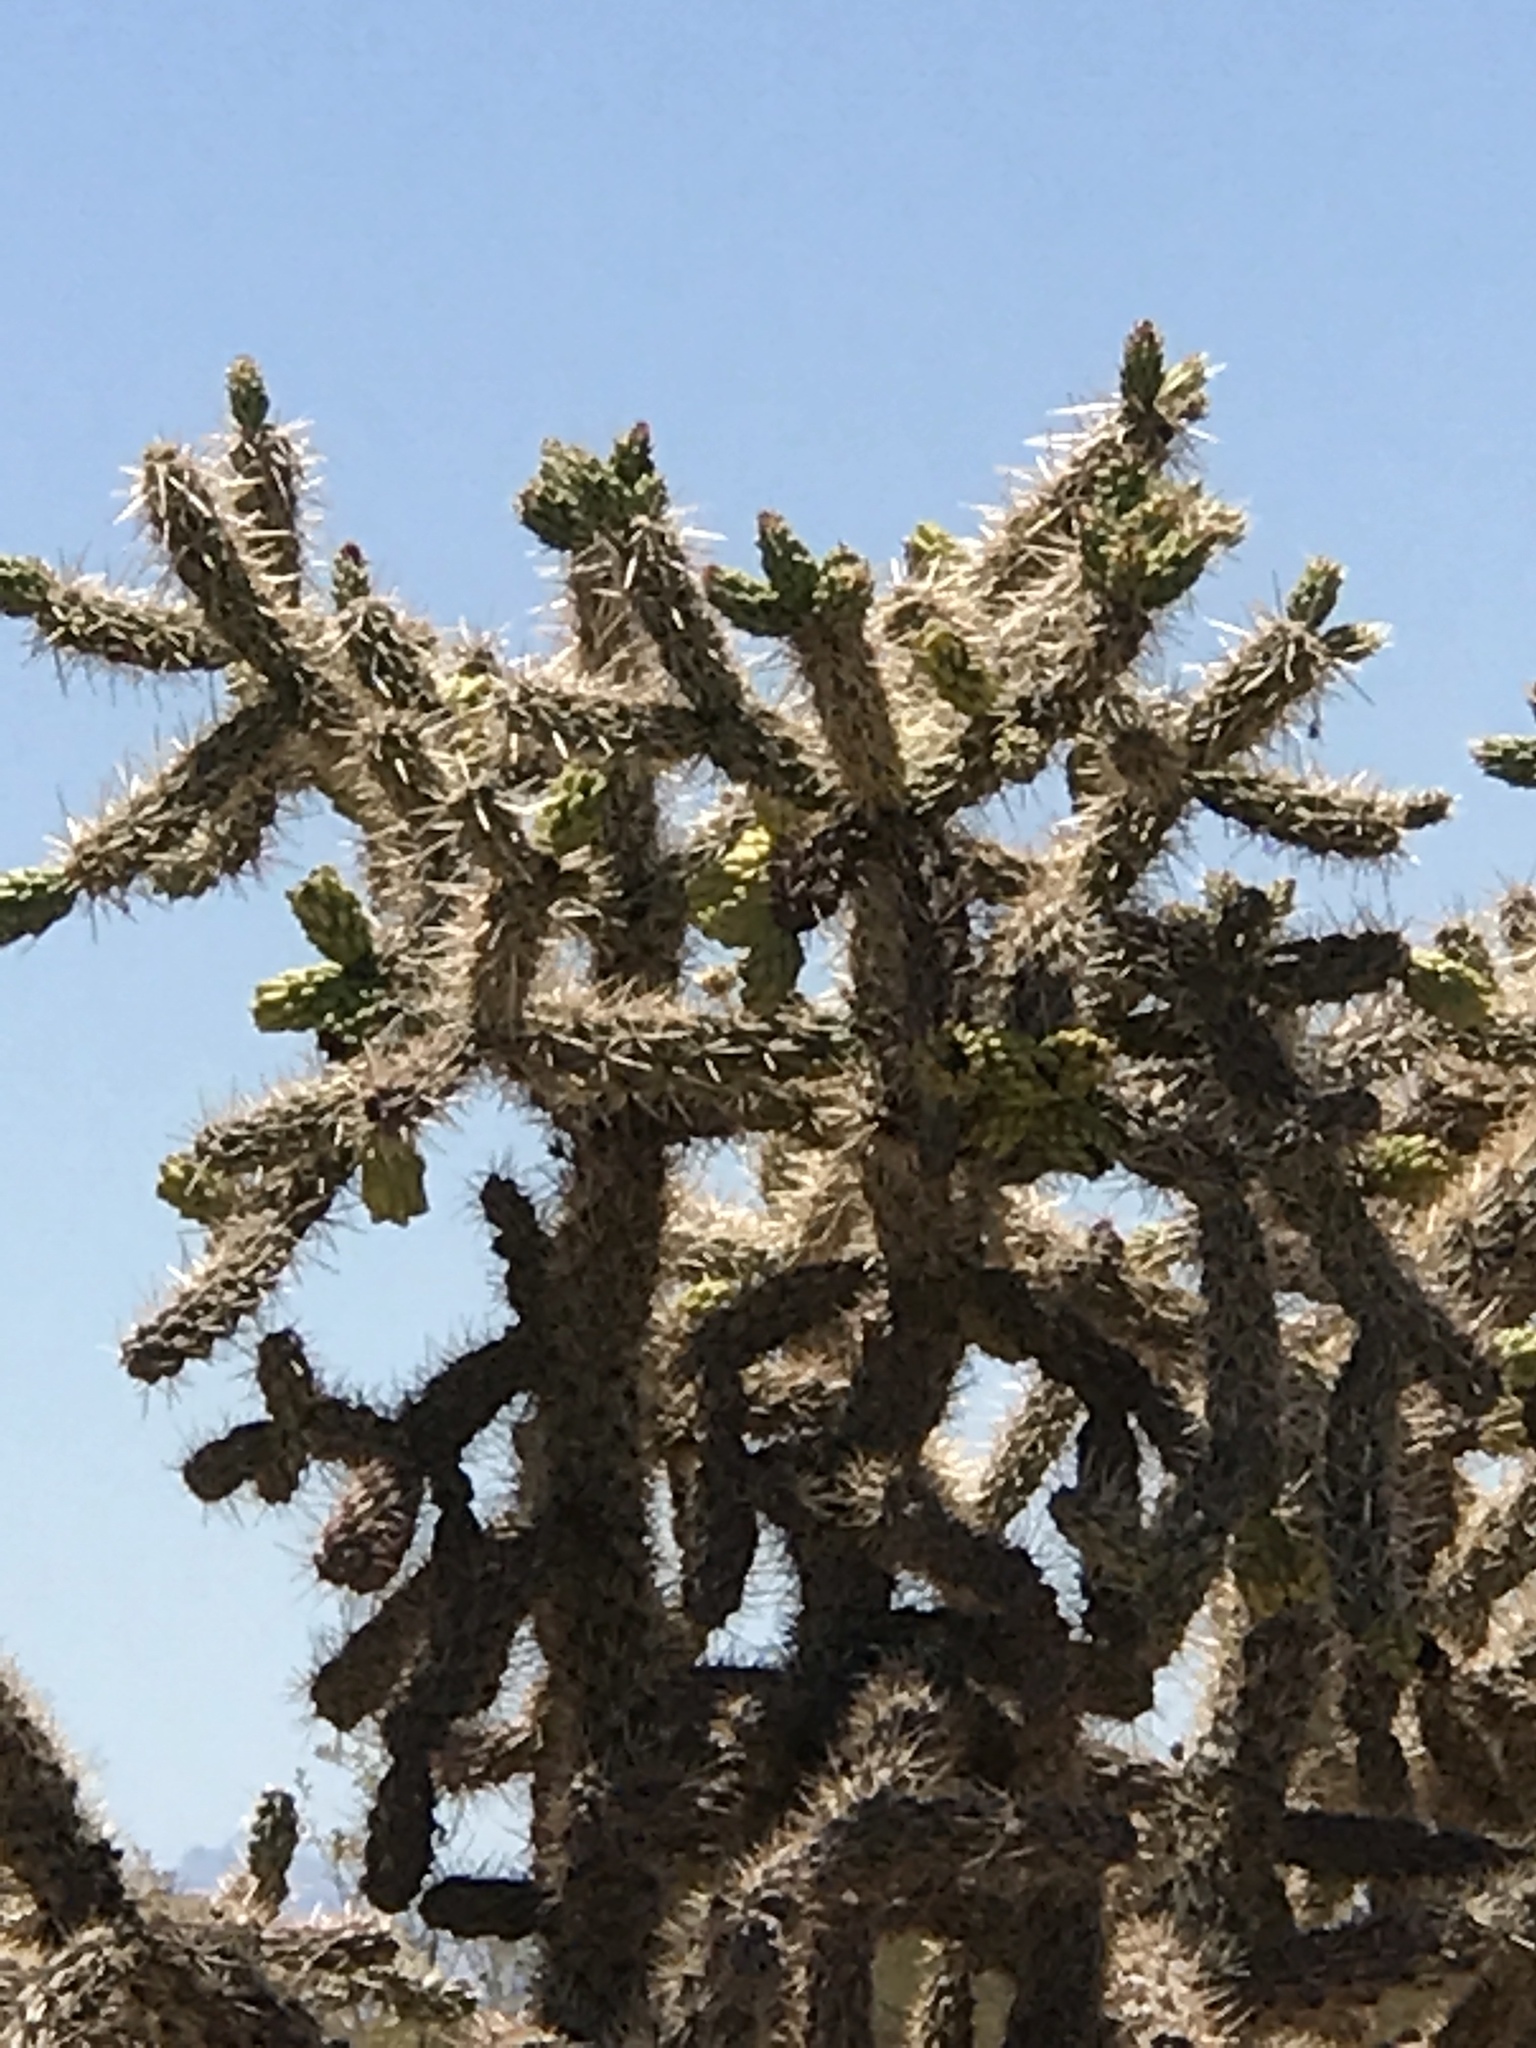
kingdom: Plantae
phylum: Tracheophyta
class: Magnoliopsida
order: Caryophyllales
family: Cactaceae
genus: Cylindropuntia
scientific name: Cylindropuntia fulgida
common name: Jumping cholla
